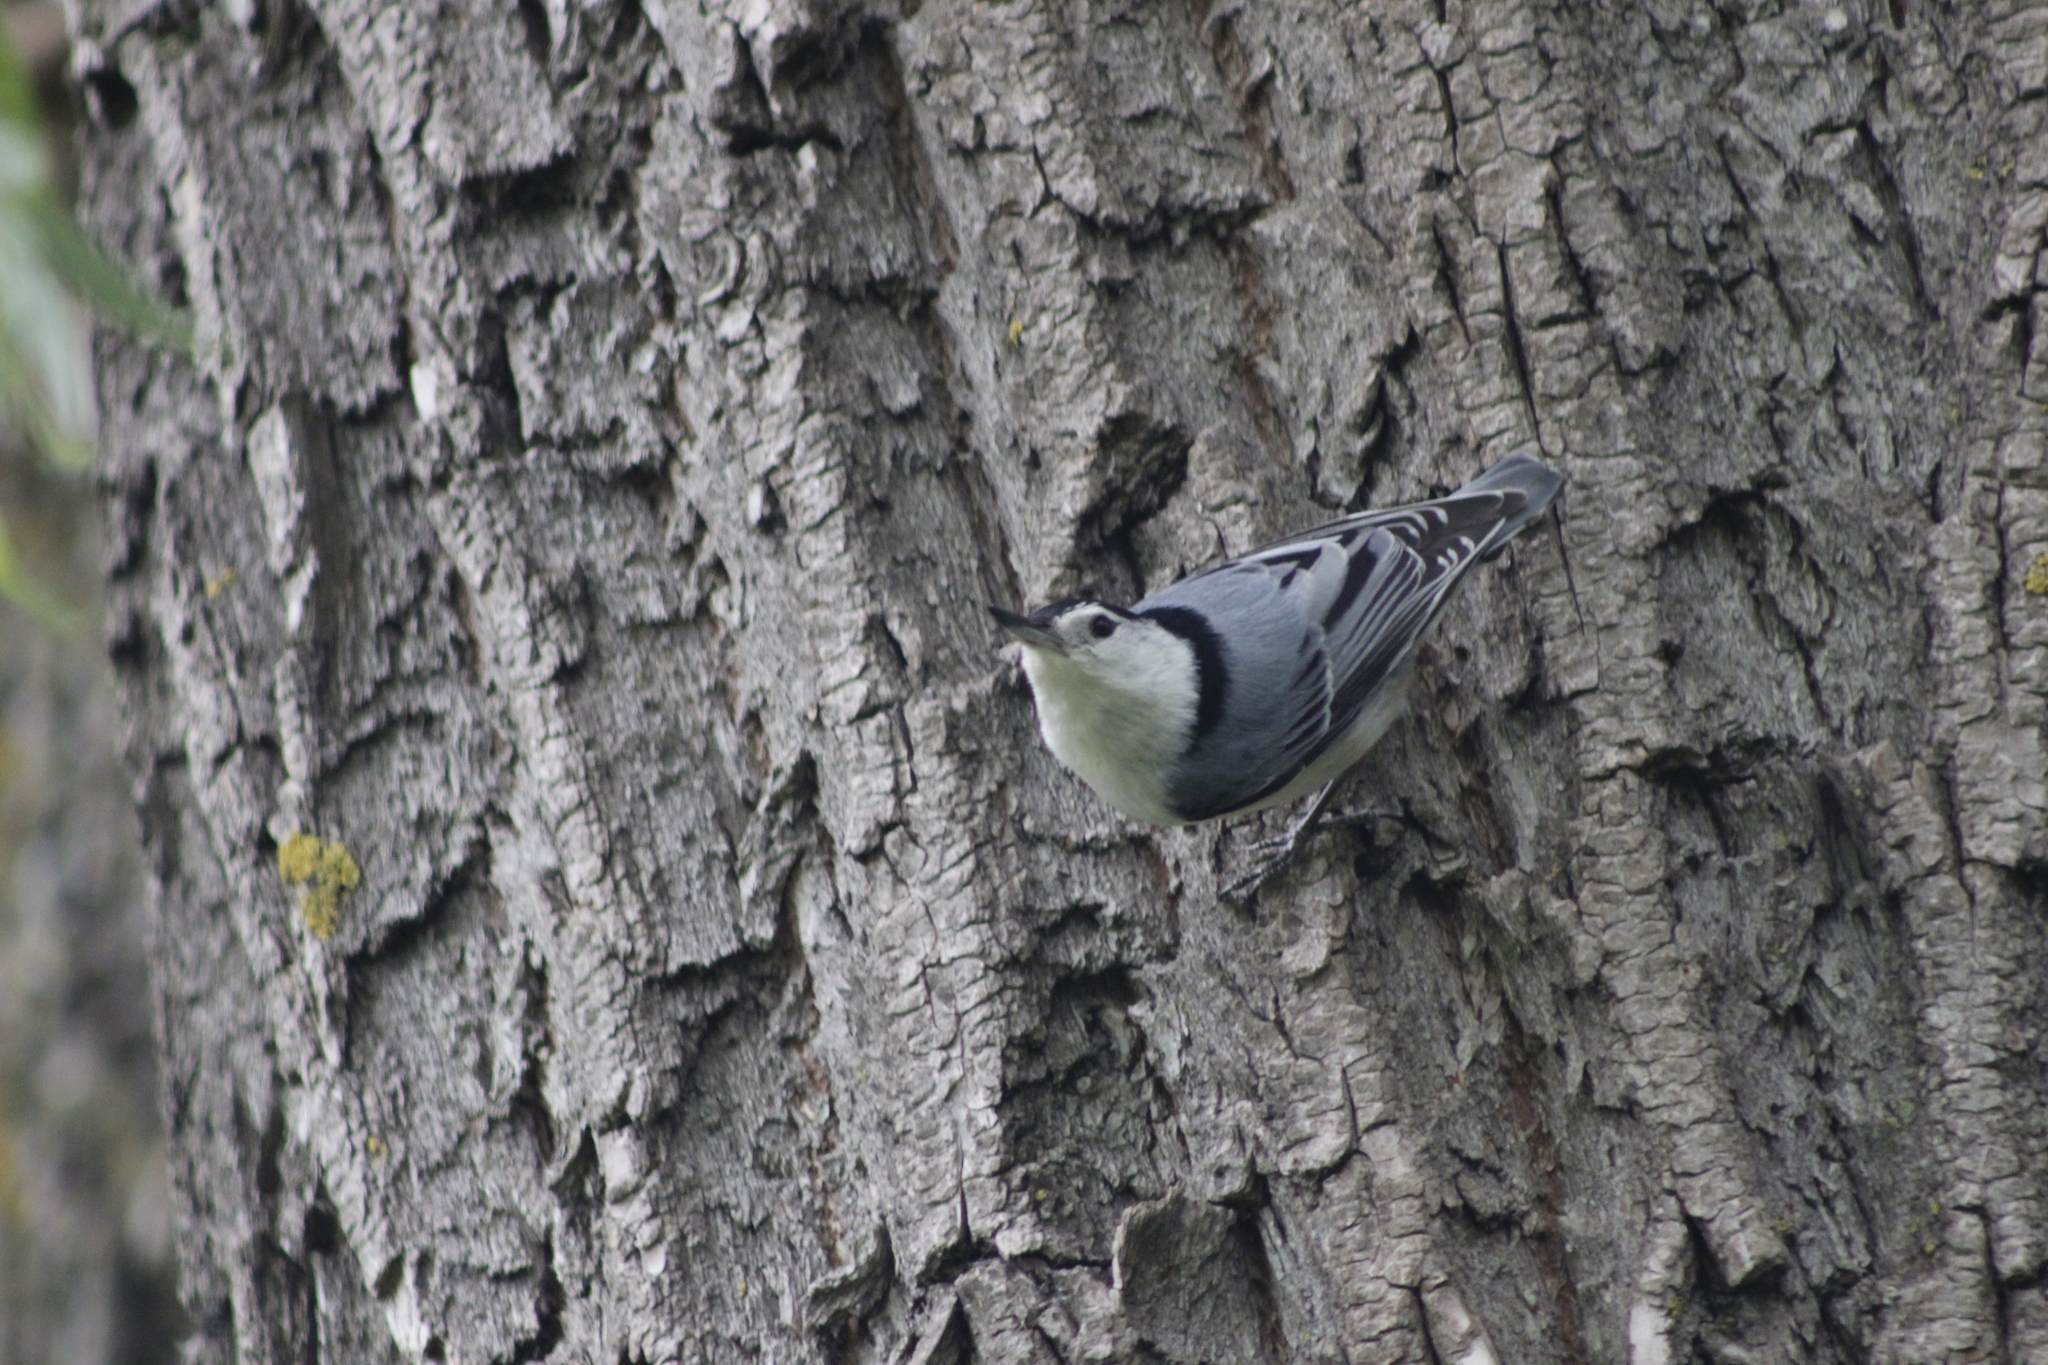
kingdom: Animalia
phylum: Chordata
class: Aves
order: Passeriformes
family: Sittidae
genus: Sitta
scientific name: Sitta carolinensis
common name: White-breasted nuthatch
